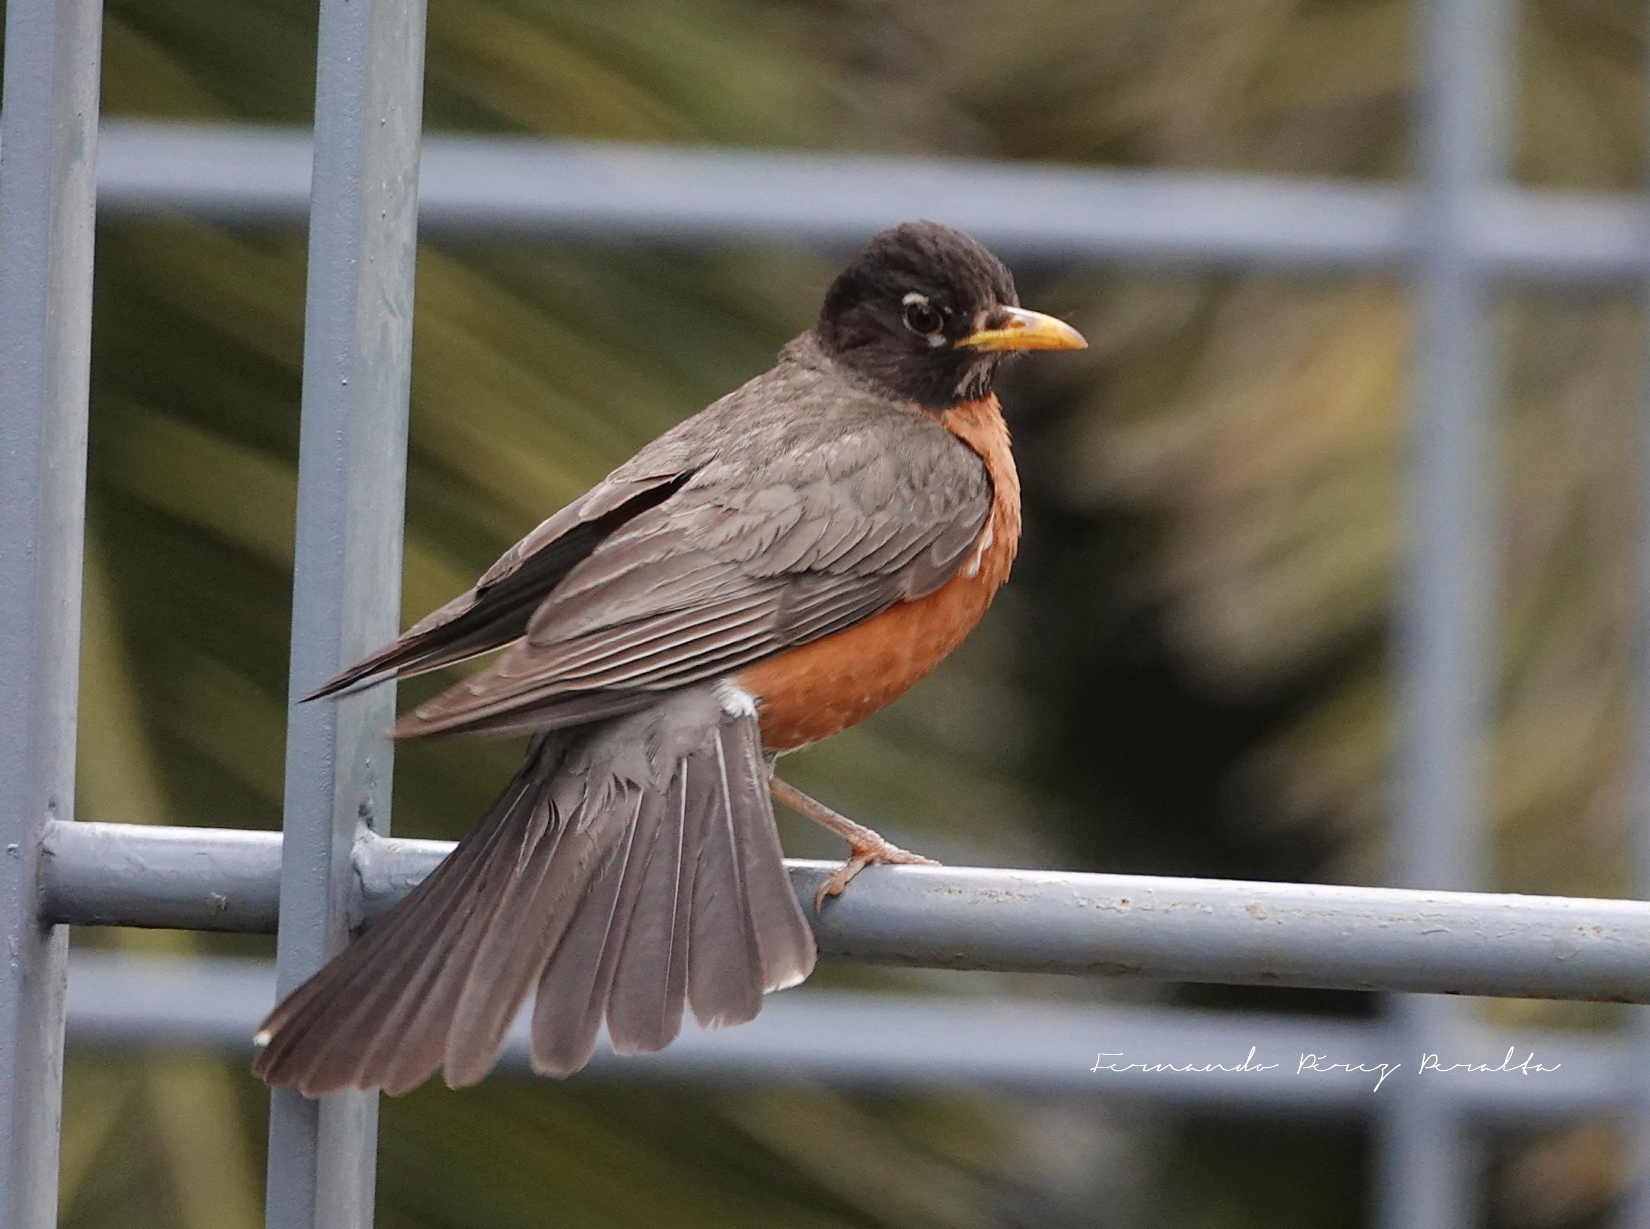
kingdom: Animalia
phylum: Chordata
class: Aves
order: Passeriformes
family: Turdidae
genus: Turdus
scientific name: Turdus migratorius
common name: American robin
